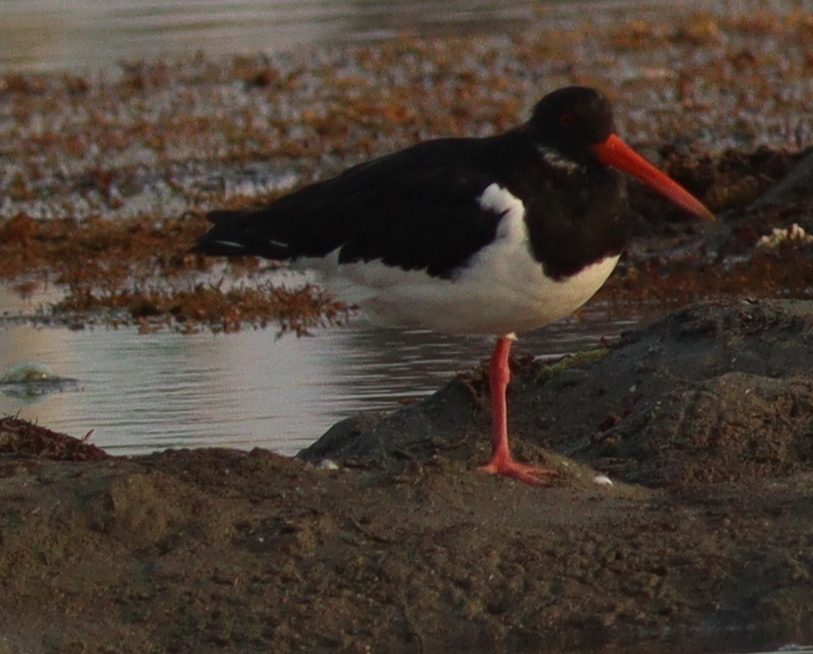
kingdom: Animalia
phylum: Chordata
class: Aves
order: Charadriiformes
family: Haematopodidae
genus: Haematopus
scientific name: Haematopus ostralegus
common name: Eurasian oystercatcher
